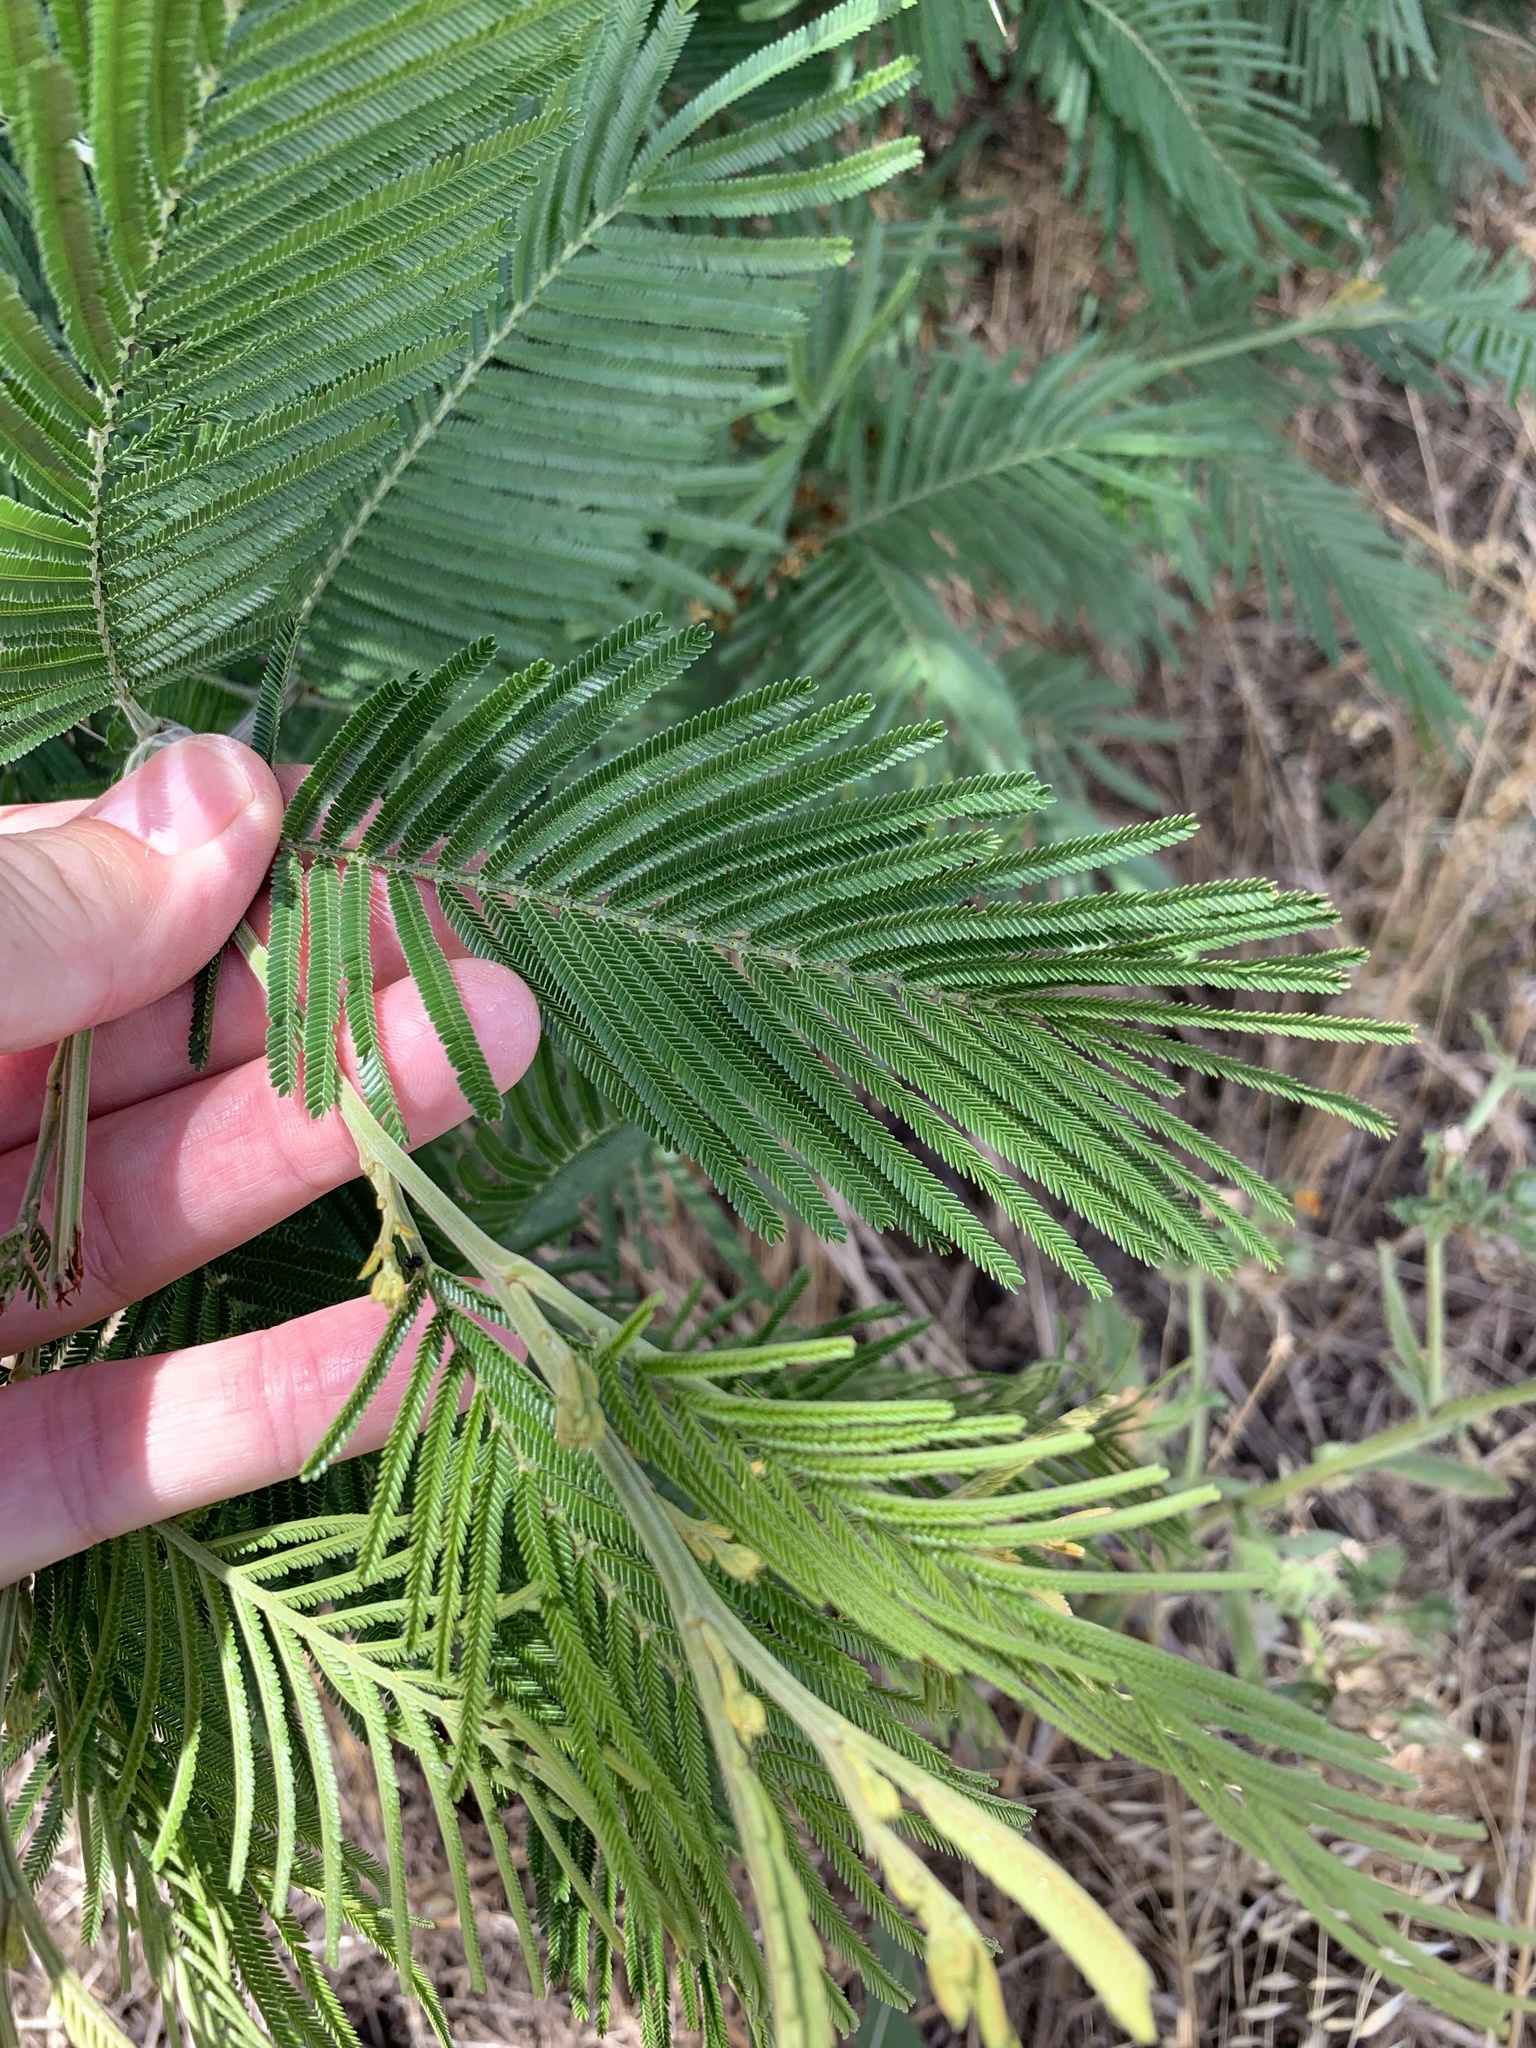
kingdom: Plantae
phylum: Tracheophyta
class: Magnoliopsida
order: Fabales
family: Fabaceae
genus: Acacia
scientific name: Acacia mearnsii
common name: Black wattle
